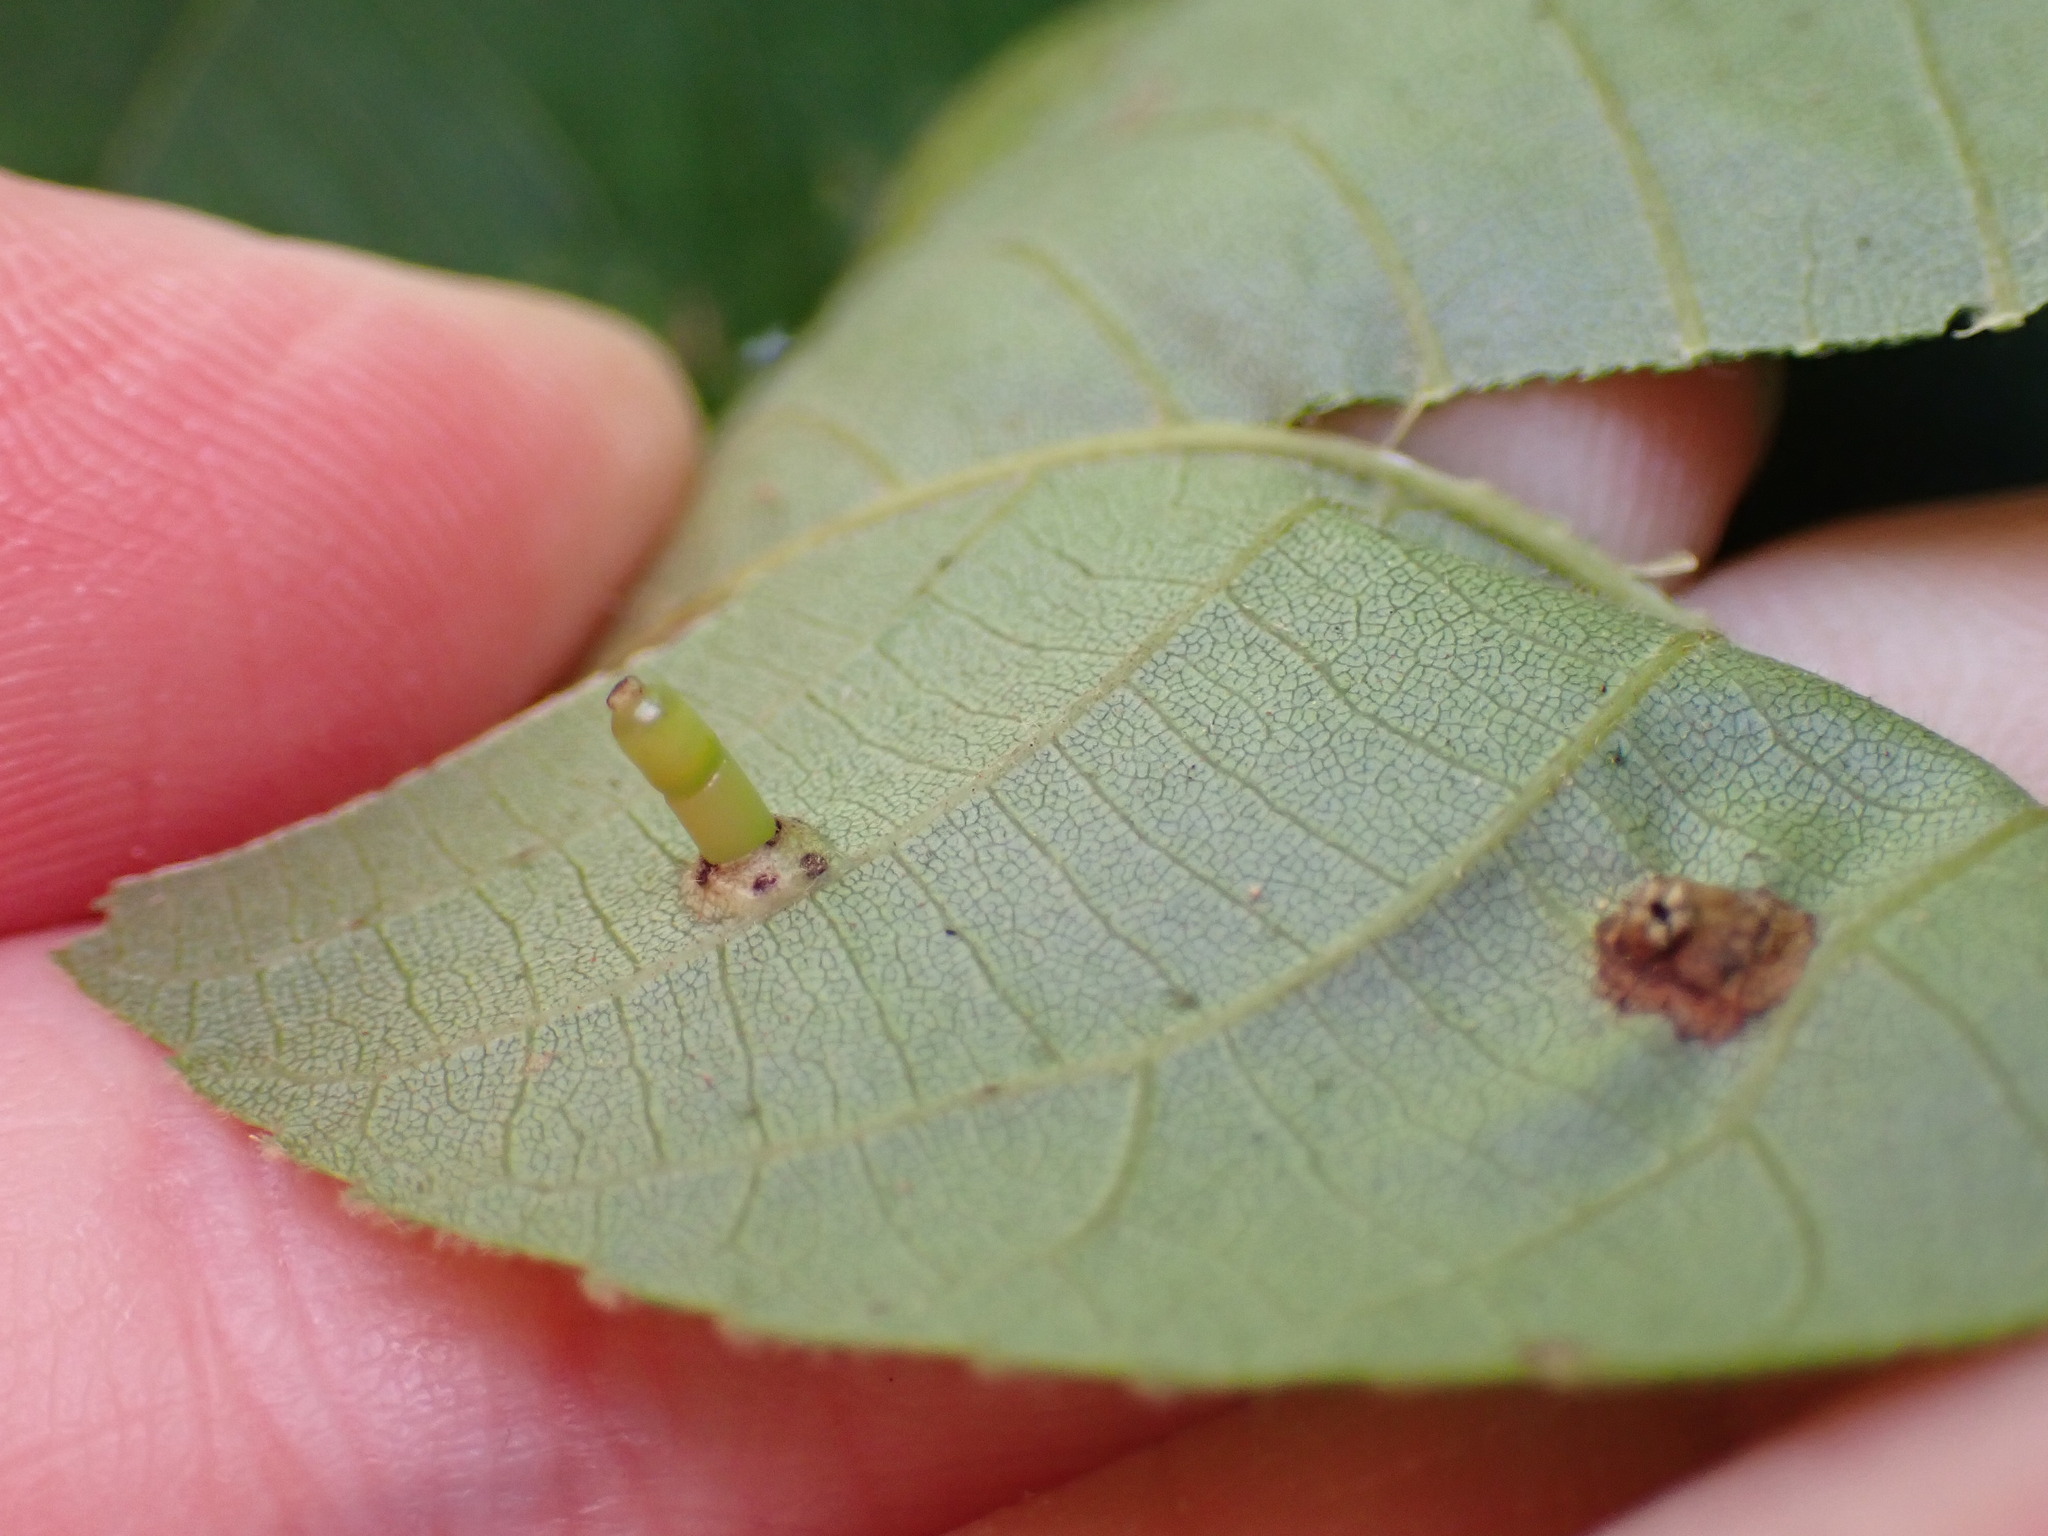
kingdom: Animalia
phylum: Arthropoda
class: Insecta
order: Diptera
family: Cecidomyiidae
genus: Caryomyia
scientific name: Caryomyia tubicola
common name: Hickory bullet gall midge
